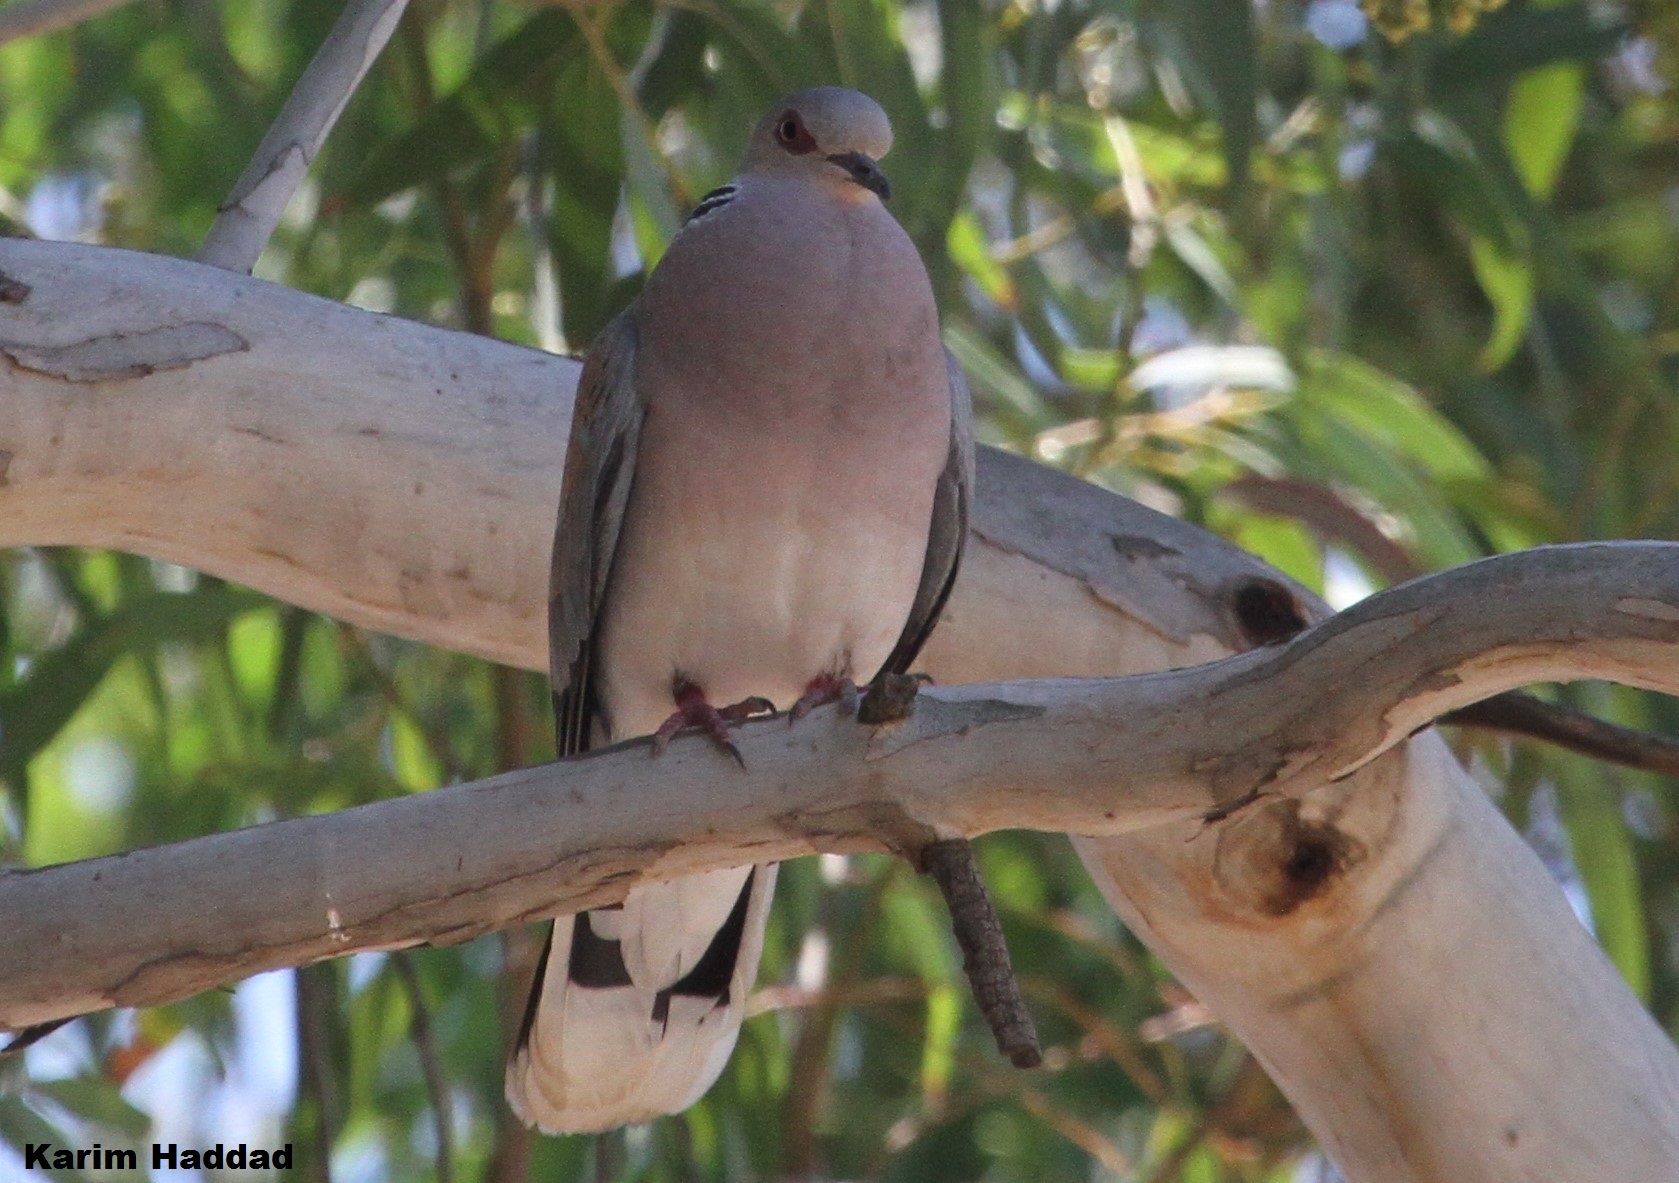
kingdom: Animalia
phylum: Chordata
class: Aves
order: Columbiformes
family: Columbidae
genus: Streptopelia
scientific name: Streptopelia turtur
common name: European turtle dove
